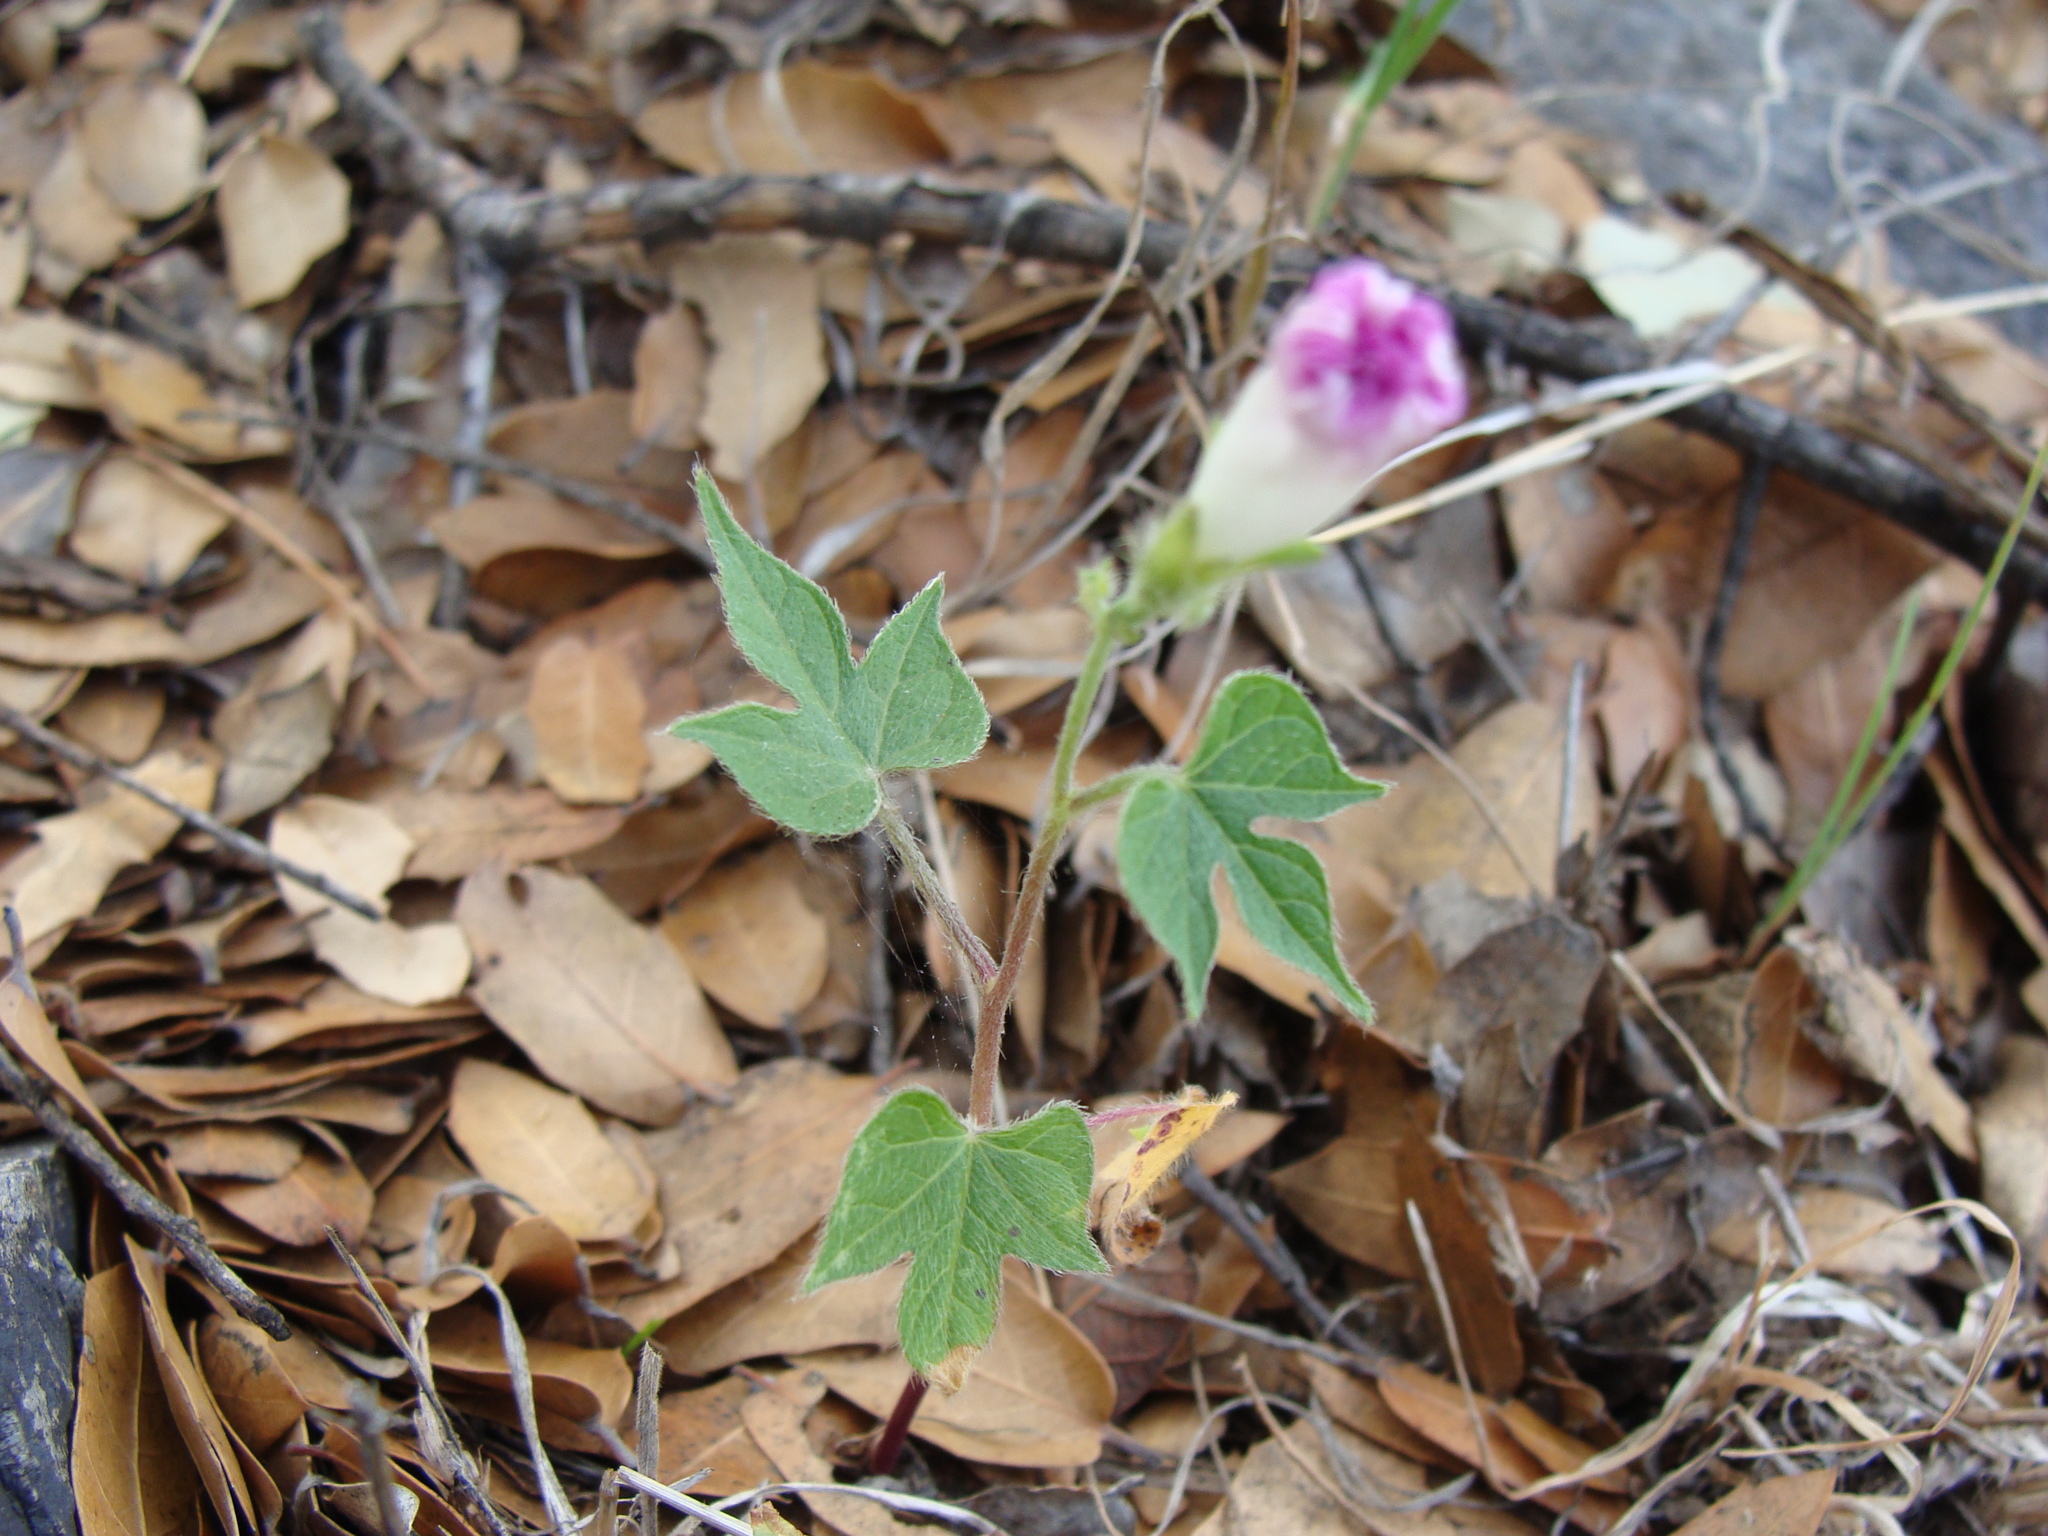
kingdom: Plantae
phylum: Tracheophyta
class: Magnoliopsida
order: Solanales
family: Convolvulaceae
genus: Ipomoea
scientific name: Ipomoea purpurea
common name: Common morning-glory
